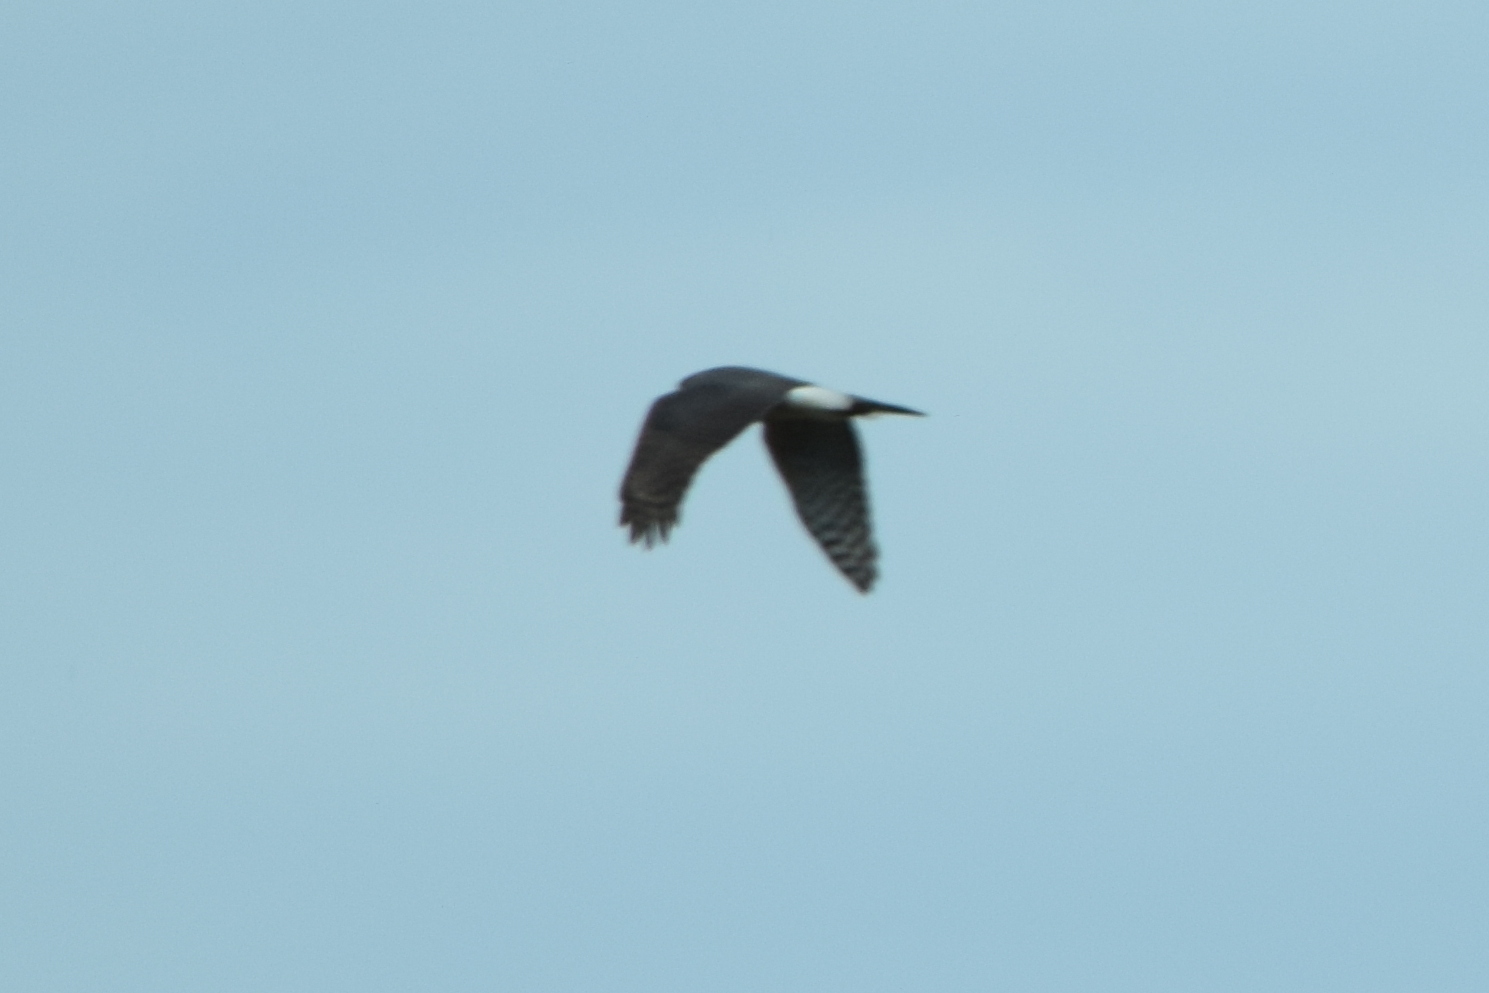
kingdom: Animalia
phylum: Chordata
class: Aves
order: Accipitriformes
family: Accipitridae
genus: Circus
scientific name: Circus cyaneus
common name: Hen harrier
